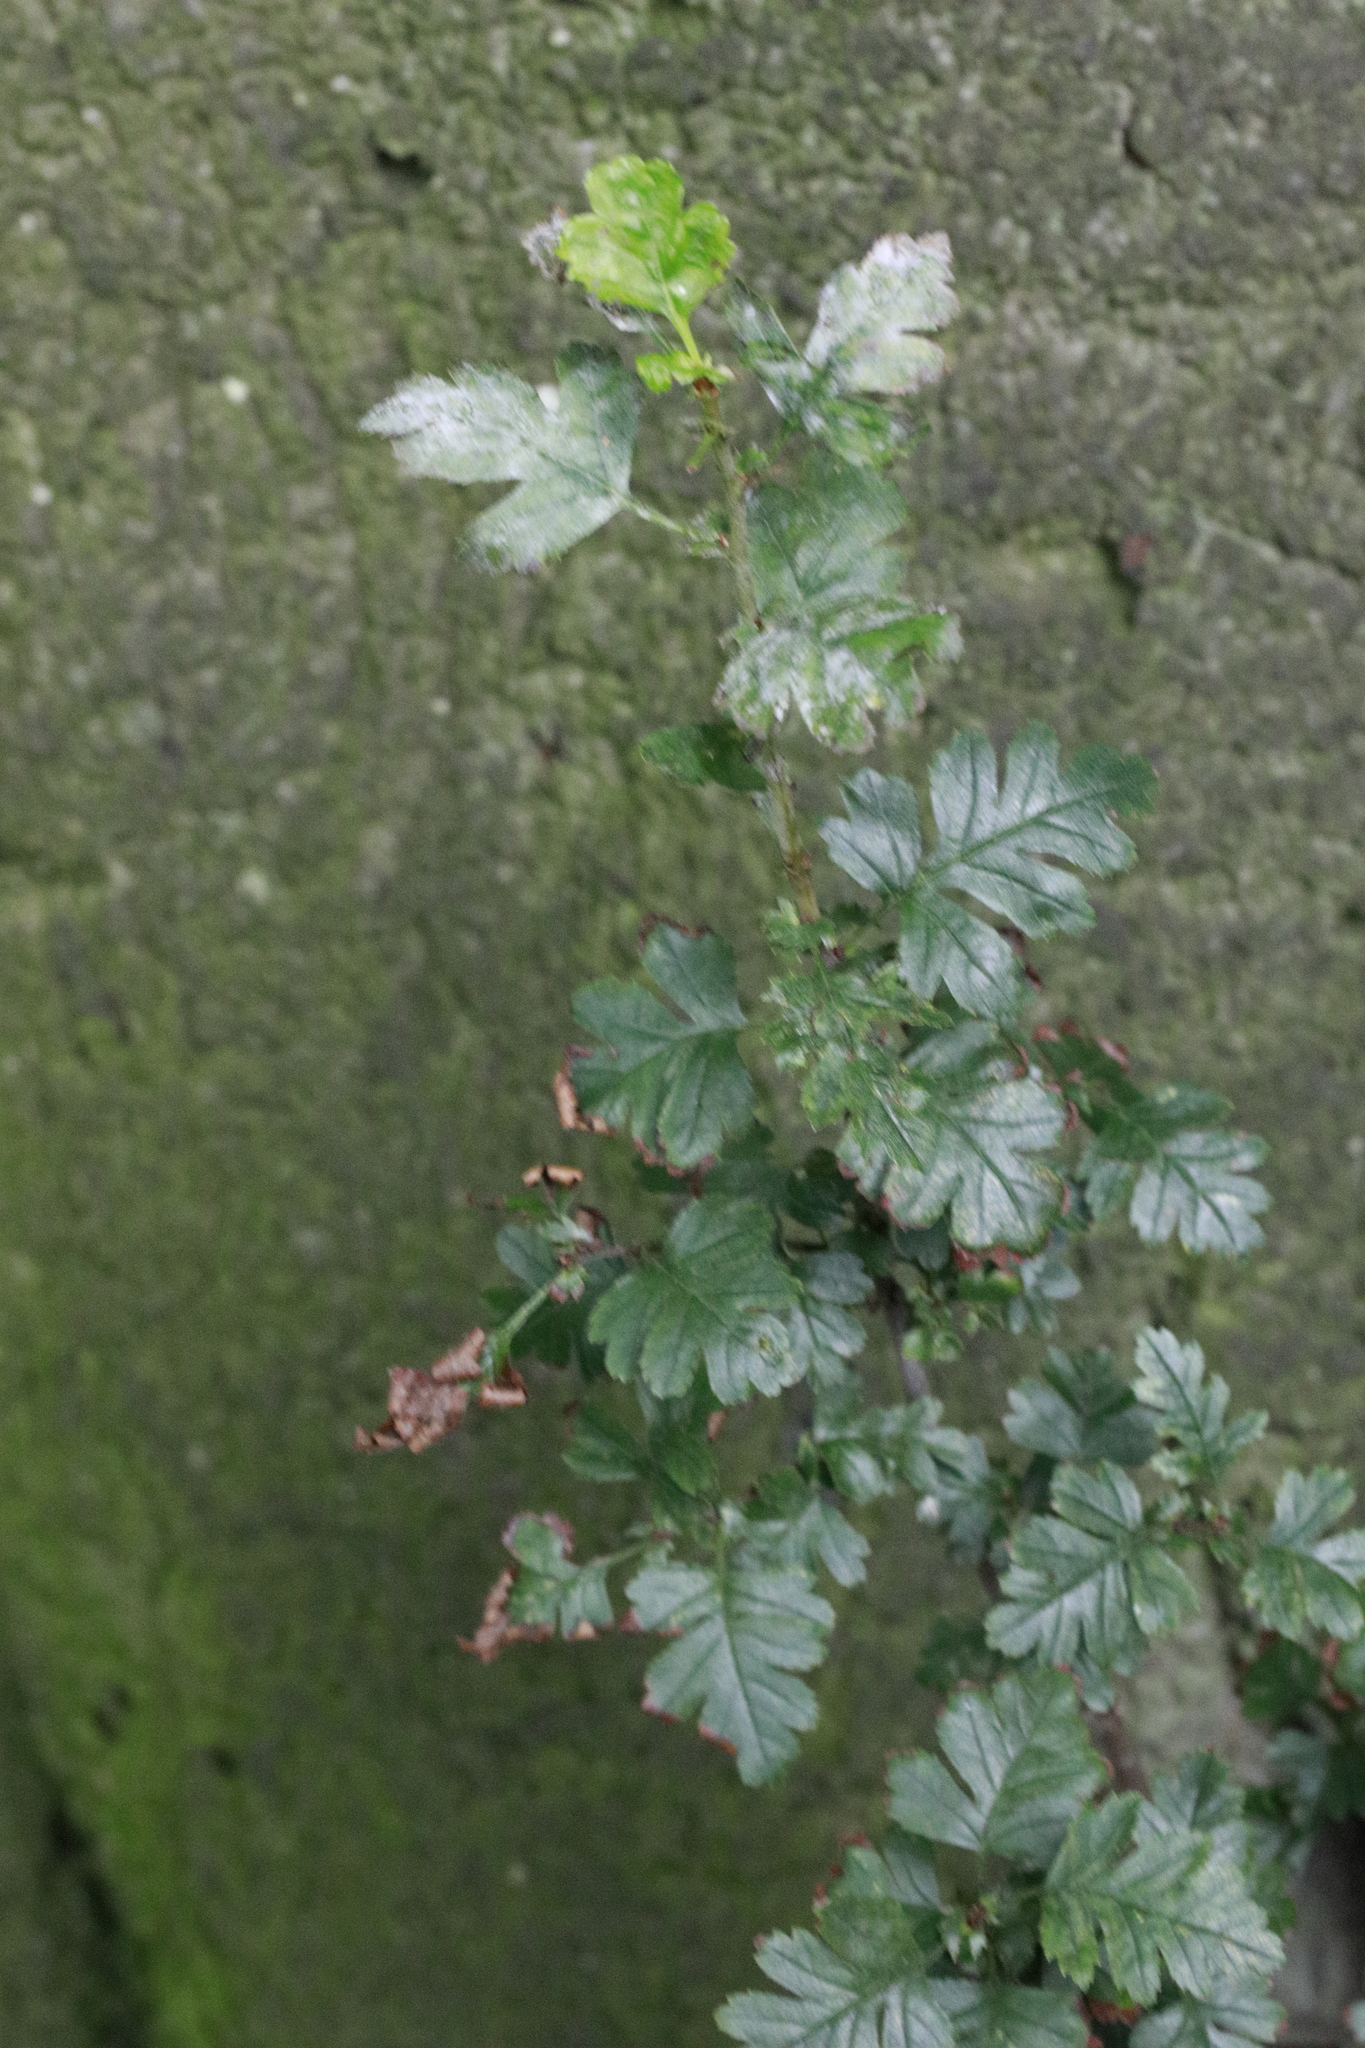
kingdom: Plantae
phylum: Tracheophyta
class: Magnoliopsida
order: Rosales
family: Rosaceae
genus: Crataegus
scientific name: Crataegus monogyna
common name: Hawthorn
